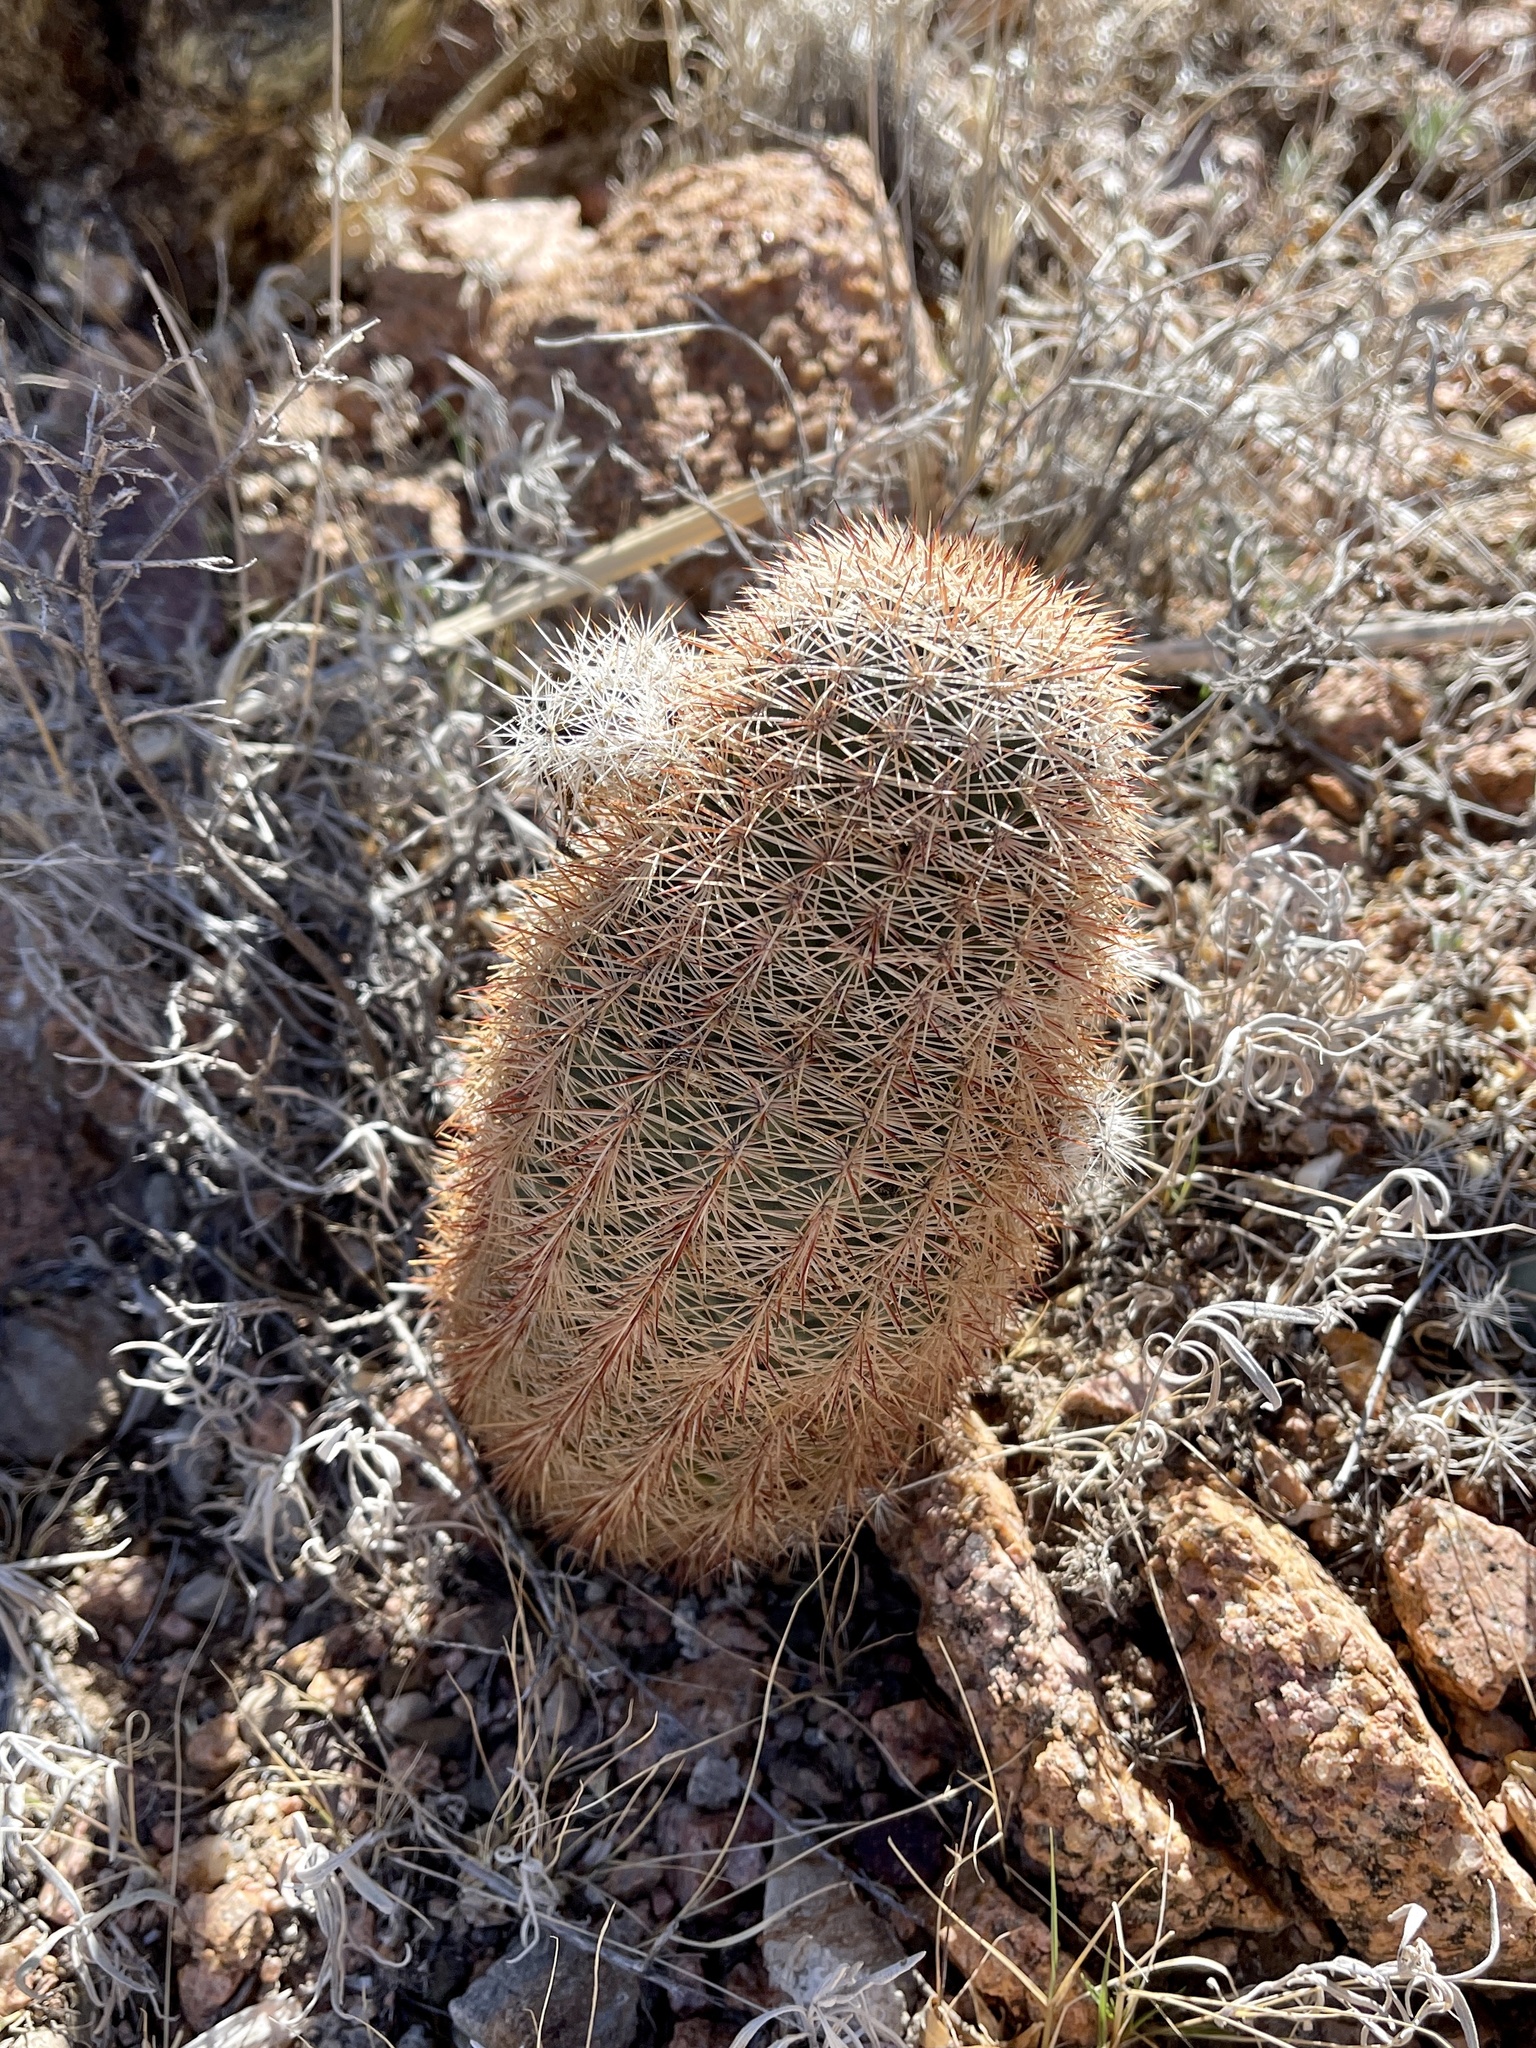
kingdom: Plantae
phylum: Tracheophyta
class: Magnoliopsida
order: Caryophyllales
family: Cactaceae
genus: Echinocereus
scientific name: Echinocereus dasyacanthus
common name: Spiny hedgehog cactus
